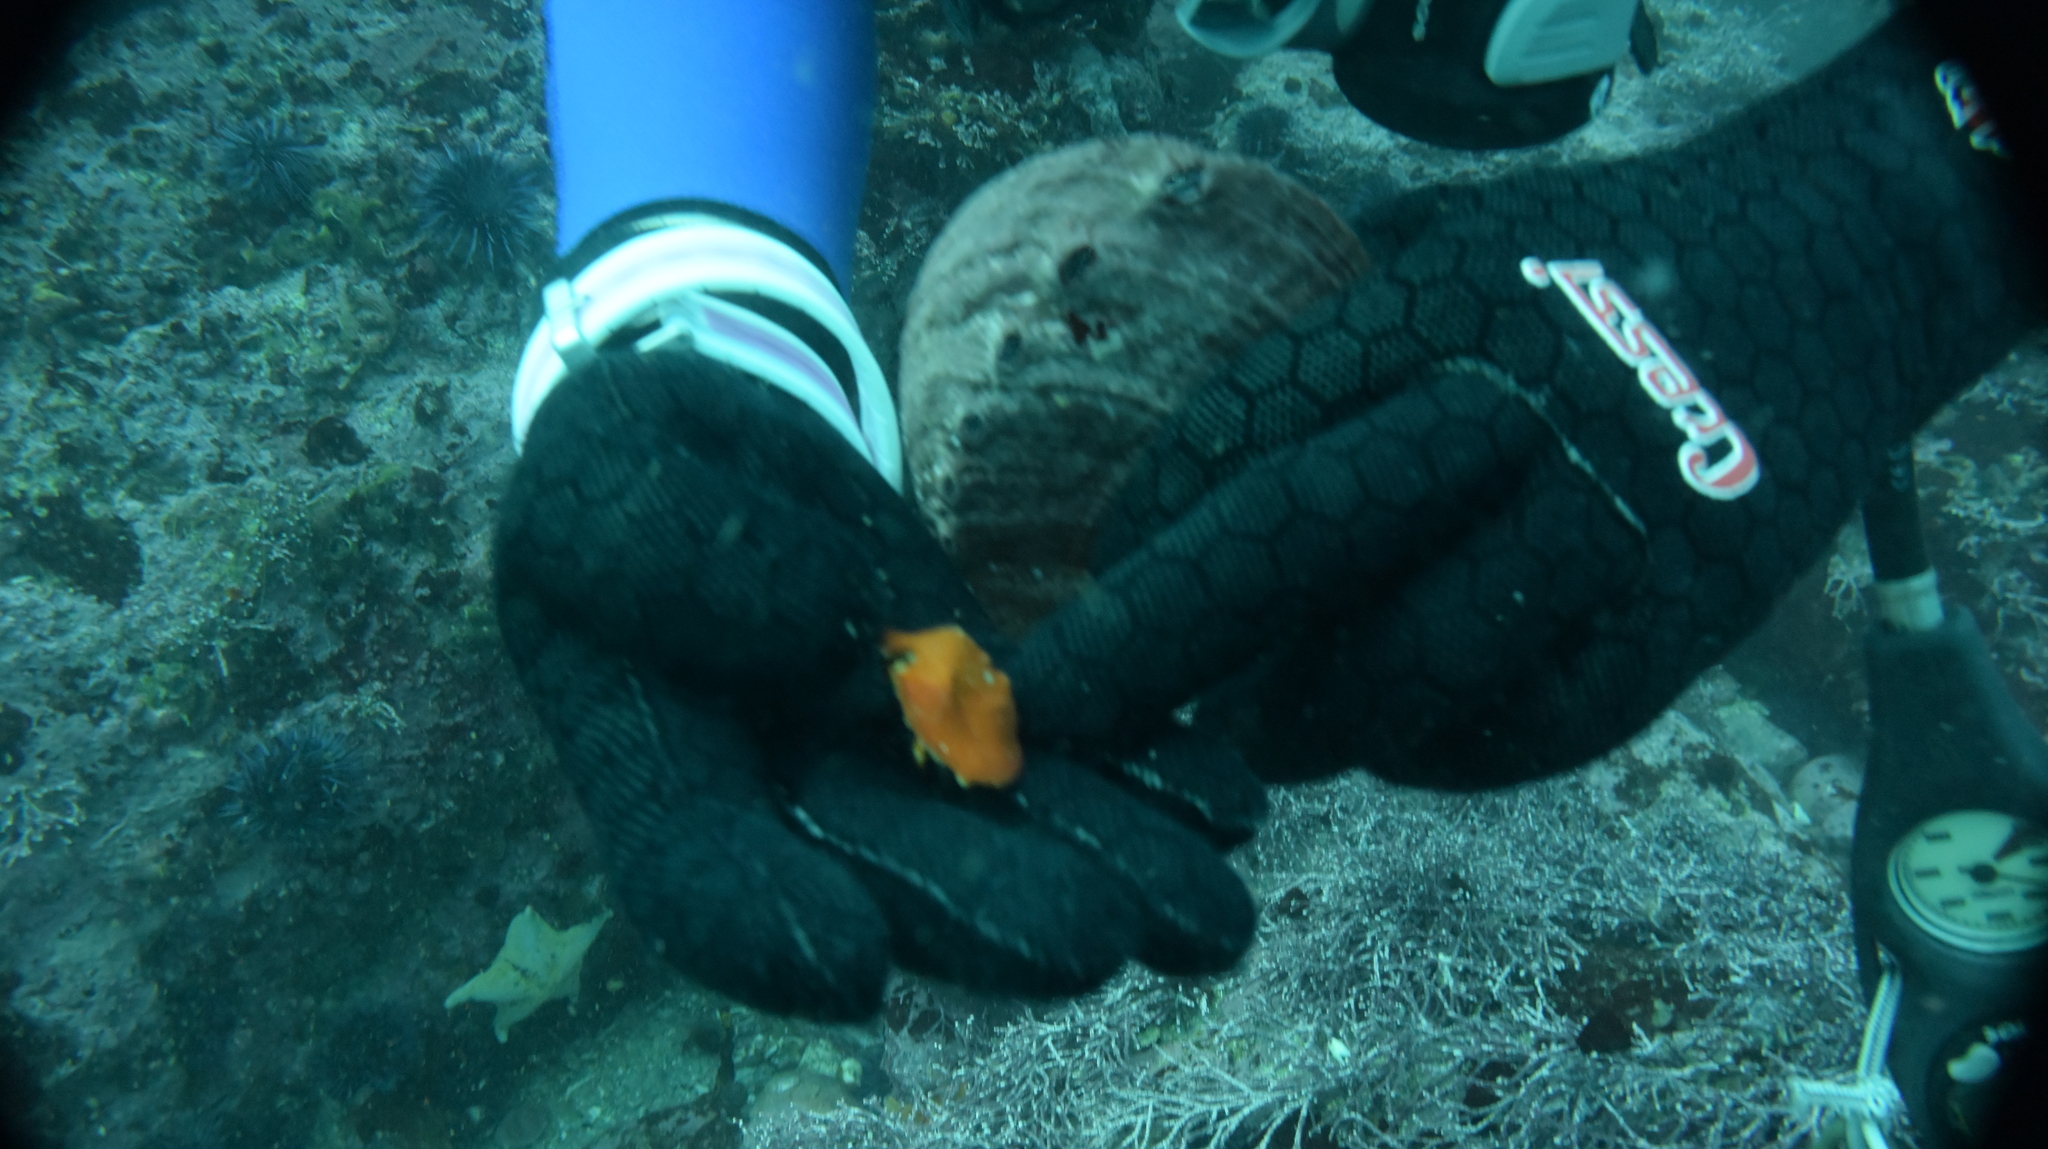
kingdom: Animalia
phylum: Arthropoda
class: Malacostraca
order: Decapoda
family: Lithodidae
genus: Cryptolithodes
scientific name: Cryptolithodes sitchensis
